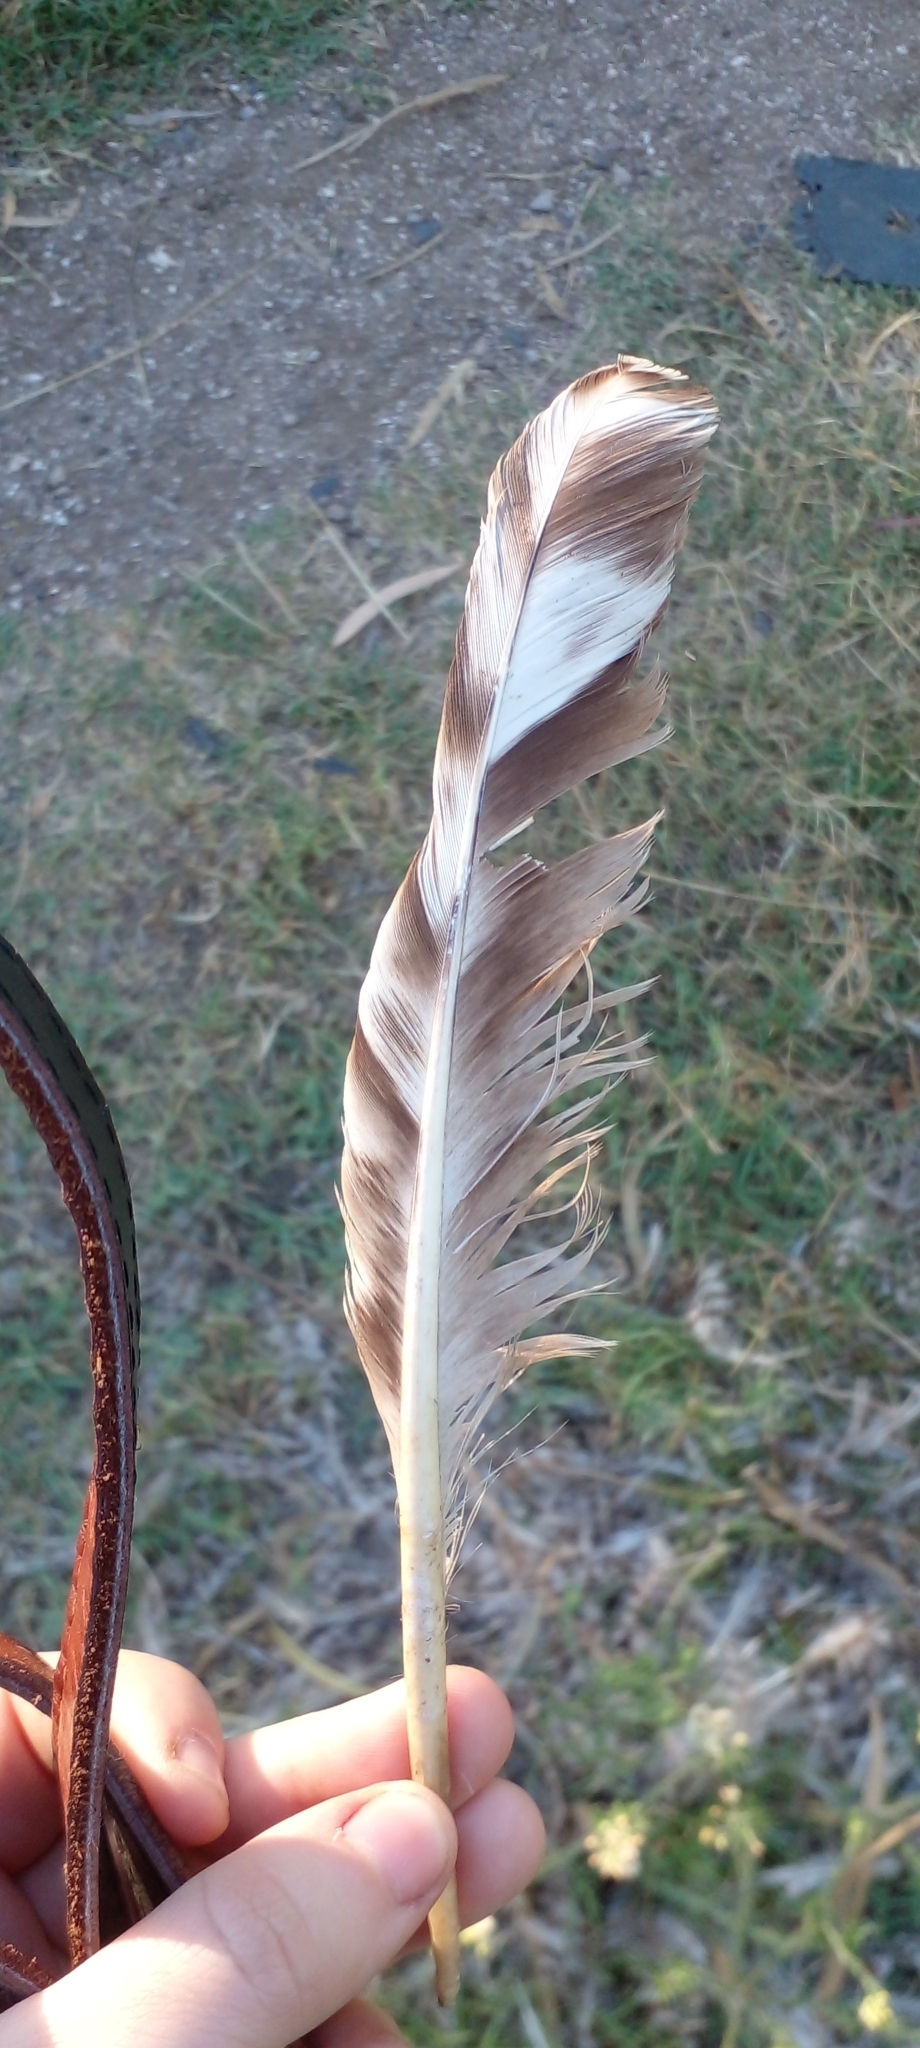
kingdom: Animalia
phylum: Chordata
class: Aves
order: Galliformes
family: Phasianidae
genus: Gallus
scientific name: Gallus gallus
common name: Red junglefowl
